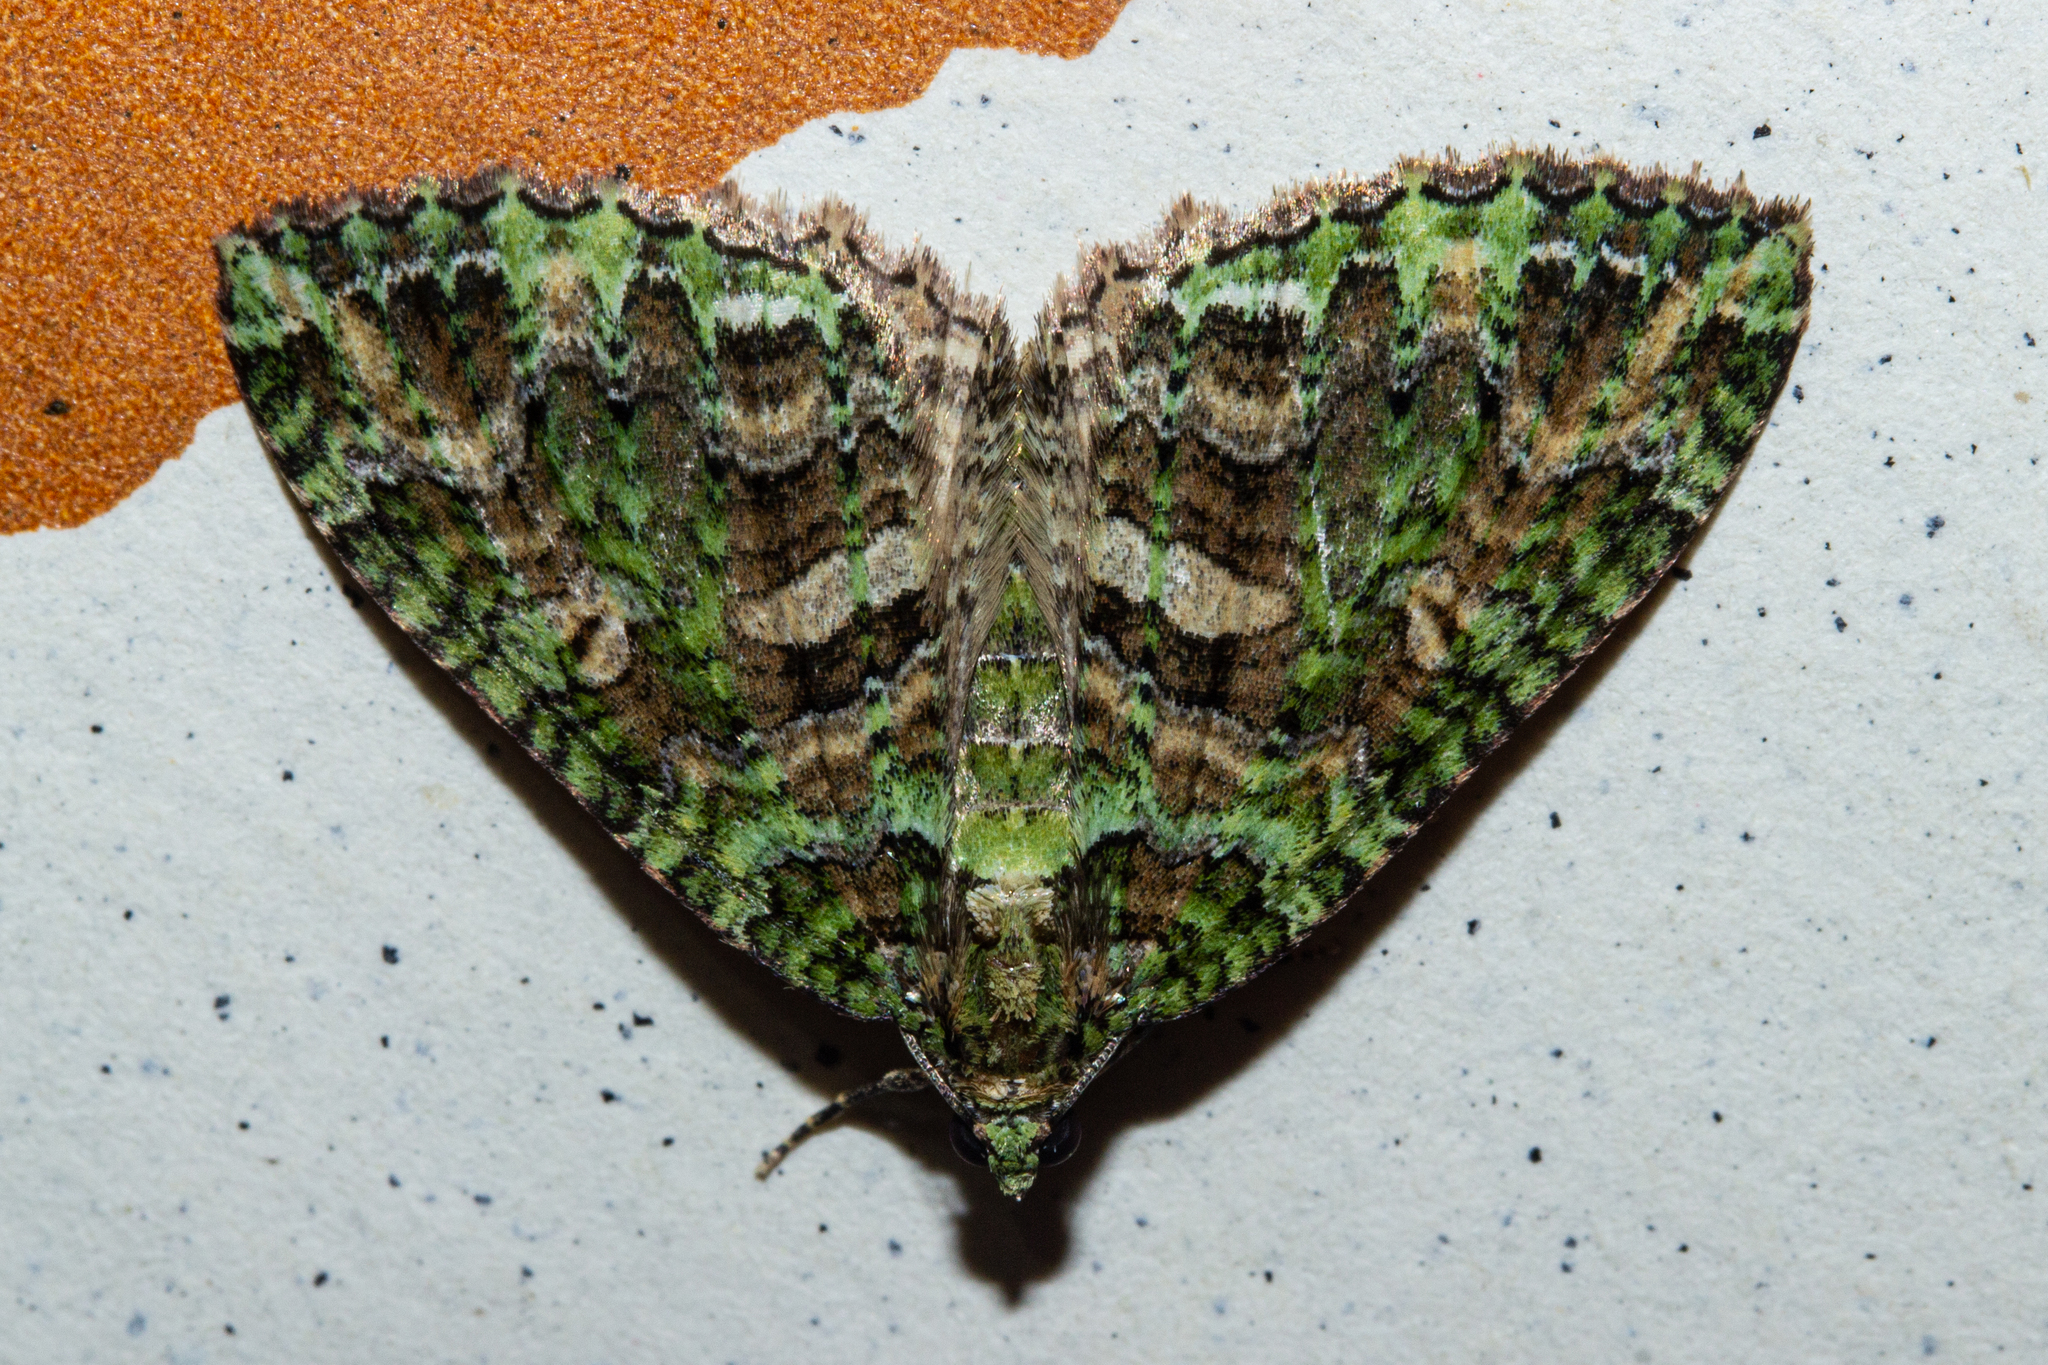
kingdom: Animalia
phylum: Arthropoda
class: Insecta
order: Lepidoptera
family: Geometridae
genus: Austrocidaria
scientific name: Austrocidaria similata
